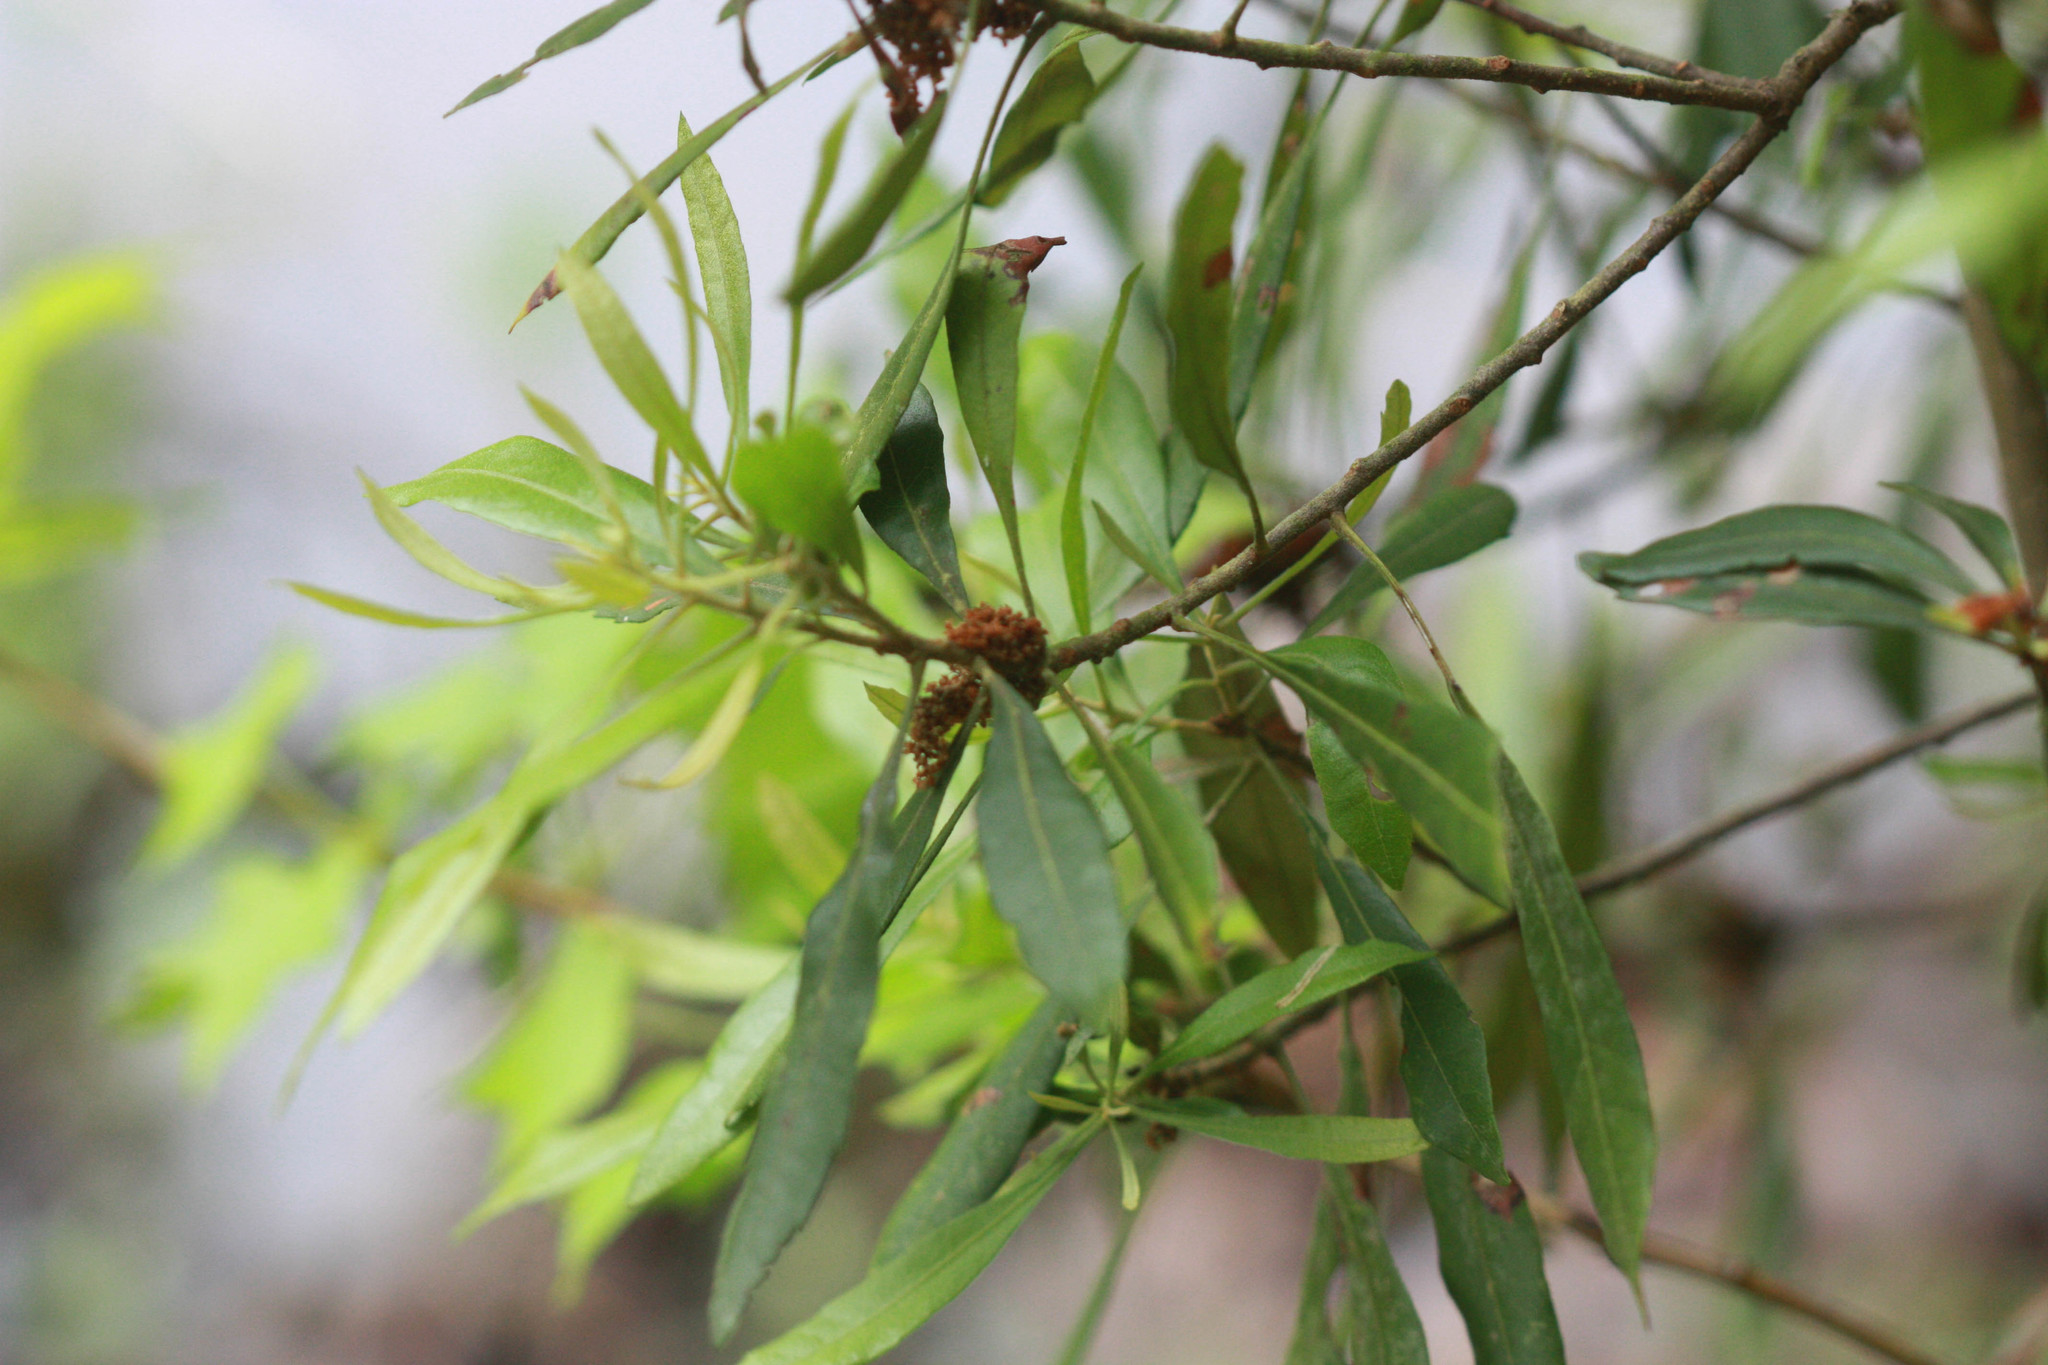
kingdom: Plantae
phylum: Tracheophyta
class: Magnoliopsida
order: Fagales
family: Myricaceae
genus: Morella
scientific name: Morella cerifera
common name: Wax myrtle
